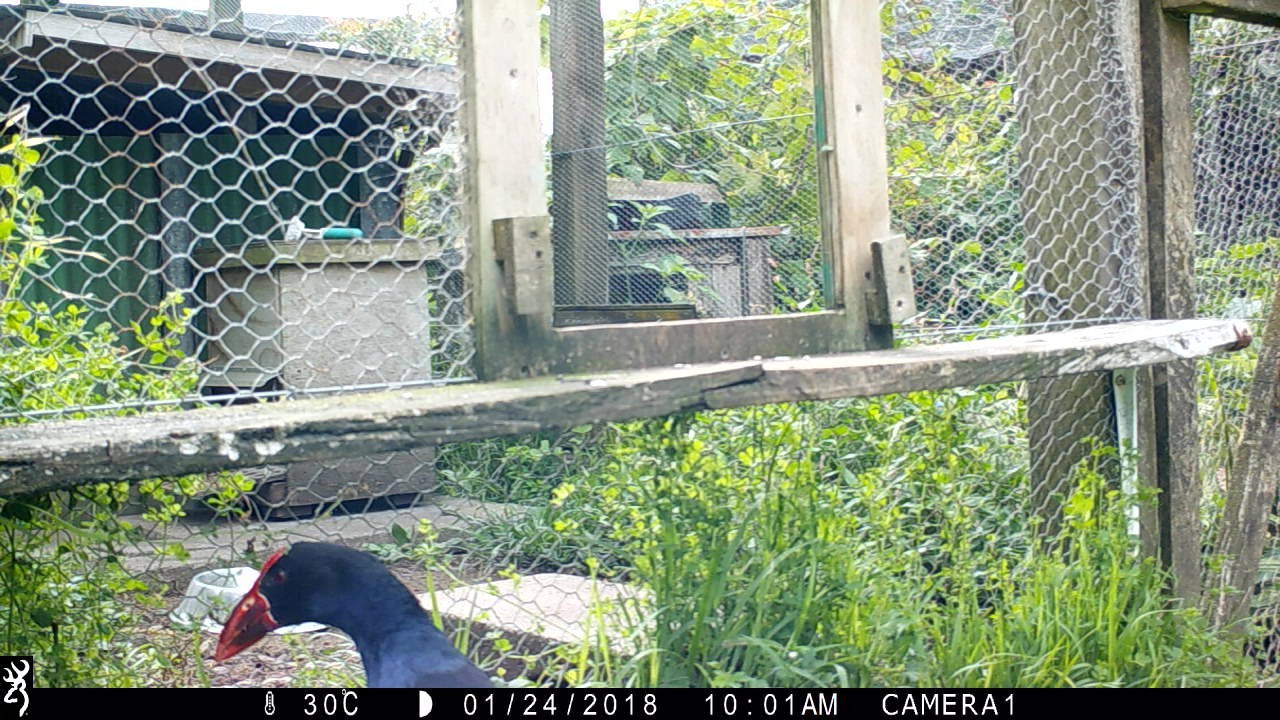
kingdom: Animalia
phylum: Chordata
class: Aves
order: Gruiformes
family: Rallidae
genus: Porphyrio
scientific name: Porphyrio melanotus
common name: Australasian swamphen
